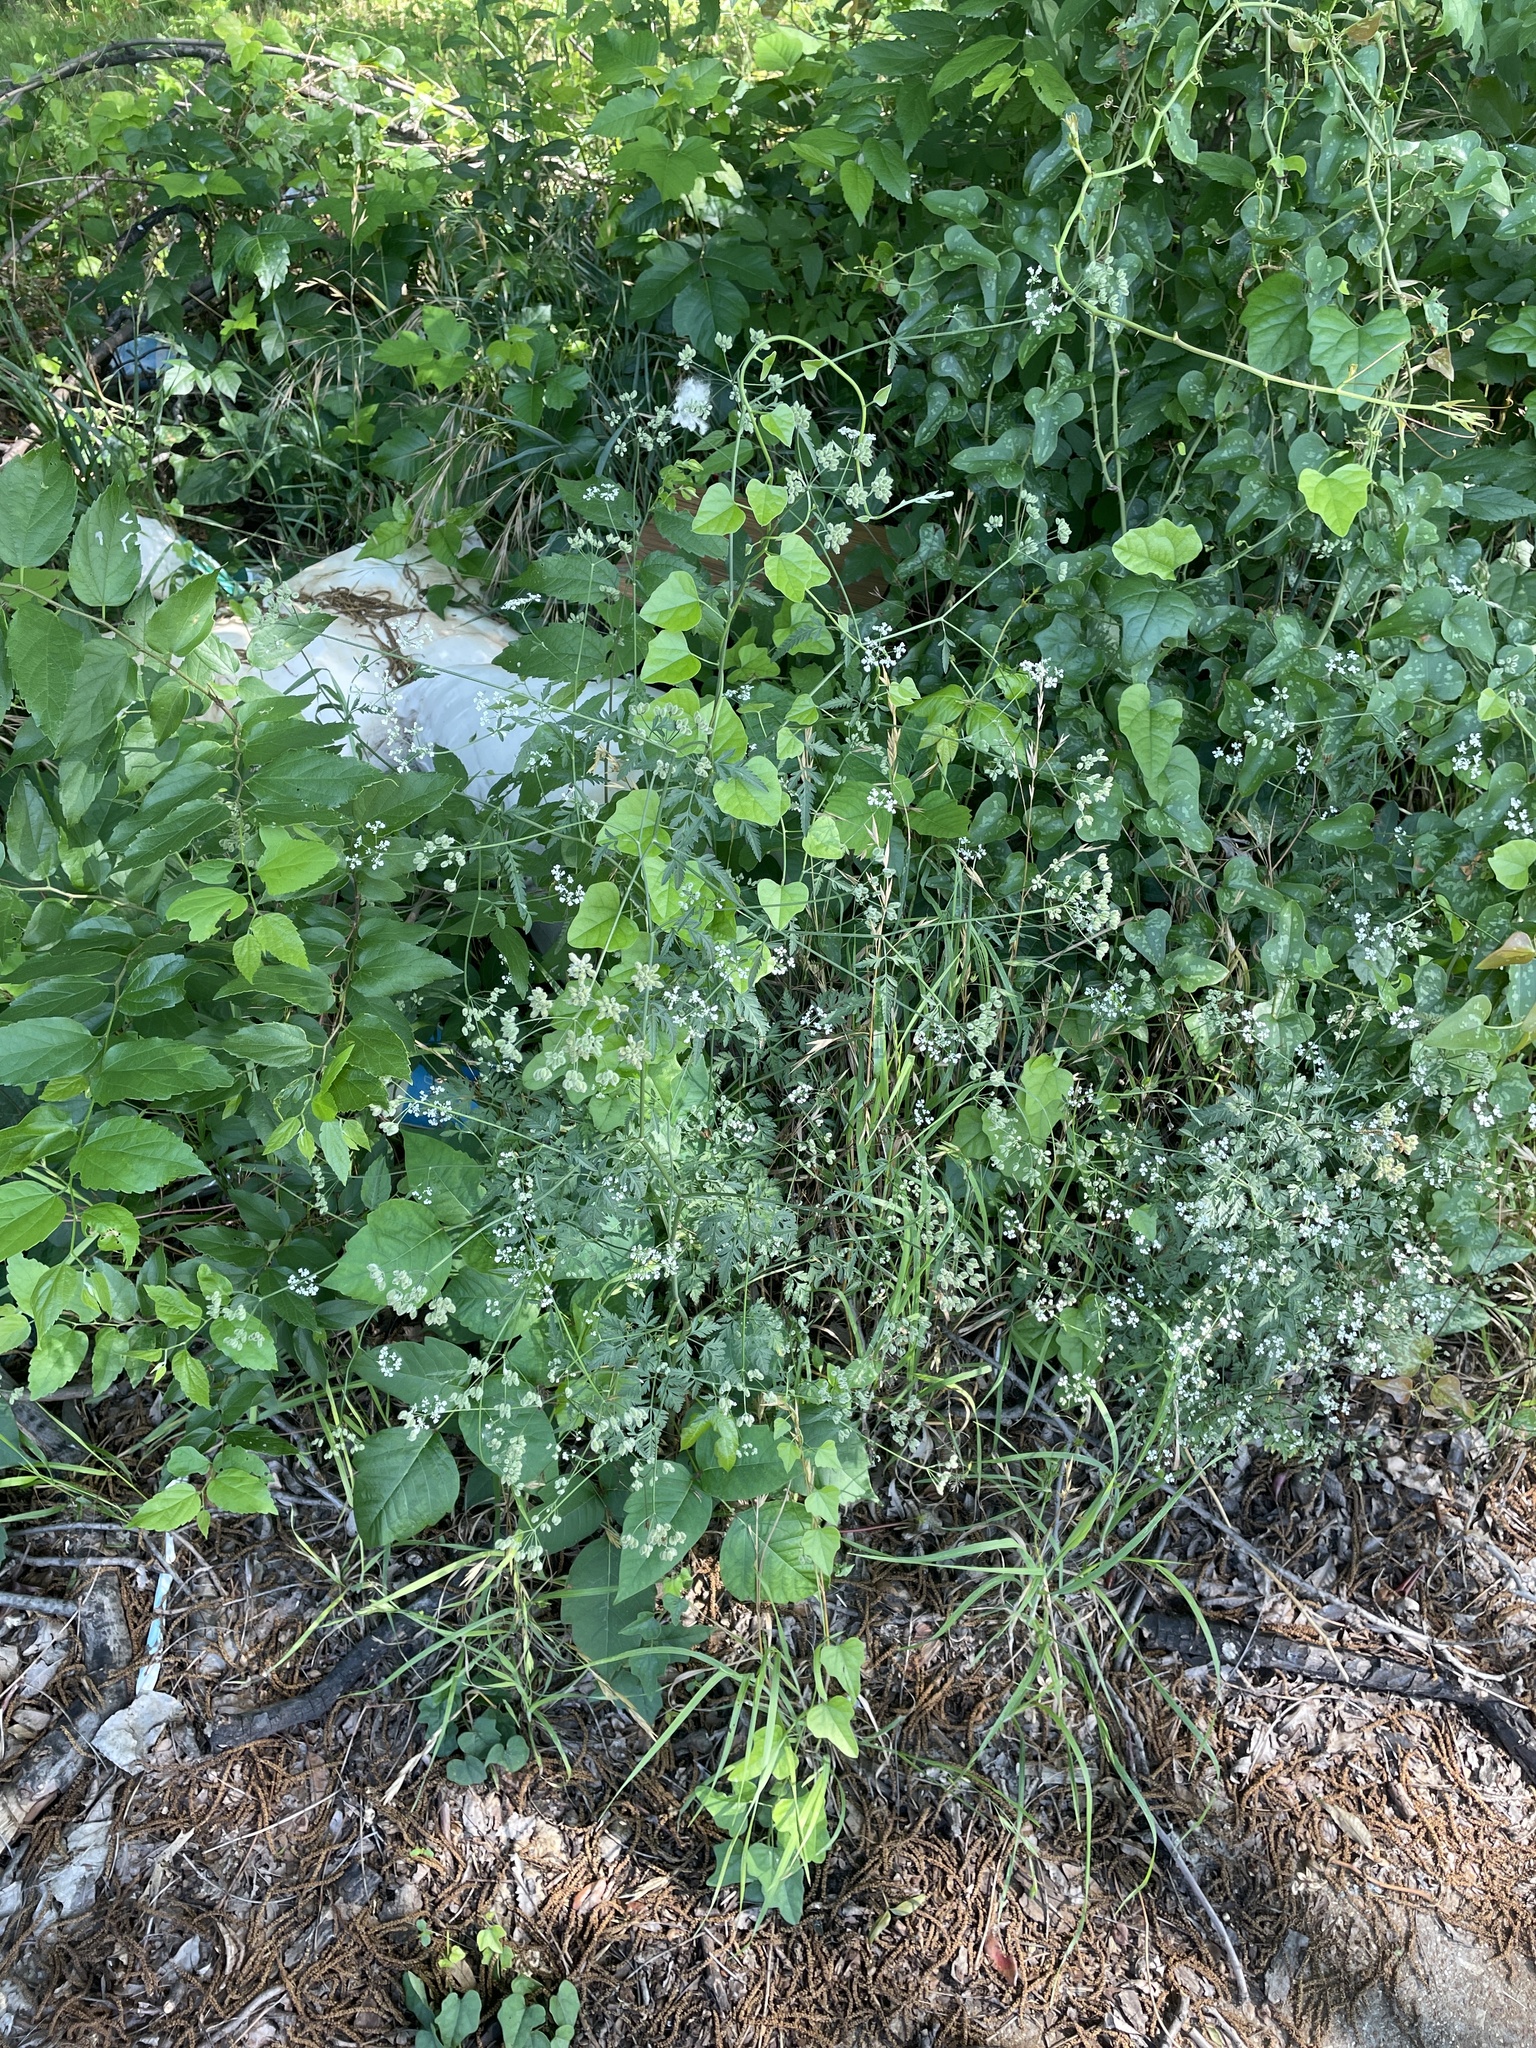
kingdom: Plantae
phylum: Tracheophyta
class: Magnoliopsida
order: Apiales
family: Apiaceae
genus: Torilis
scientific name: Torilis arvensis
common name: Spreading hedge-parsley
